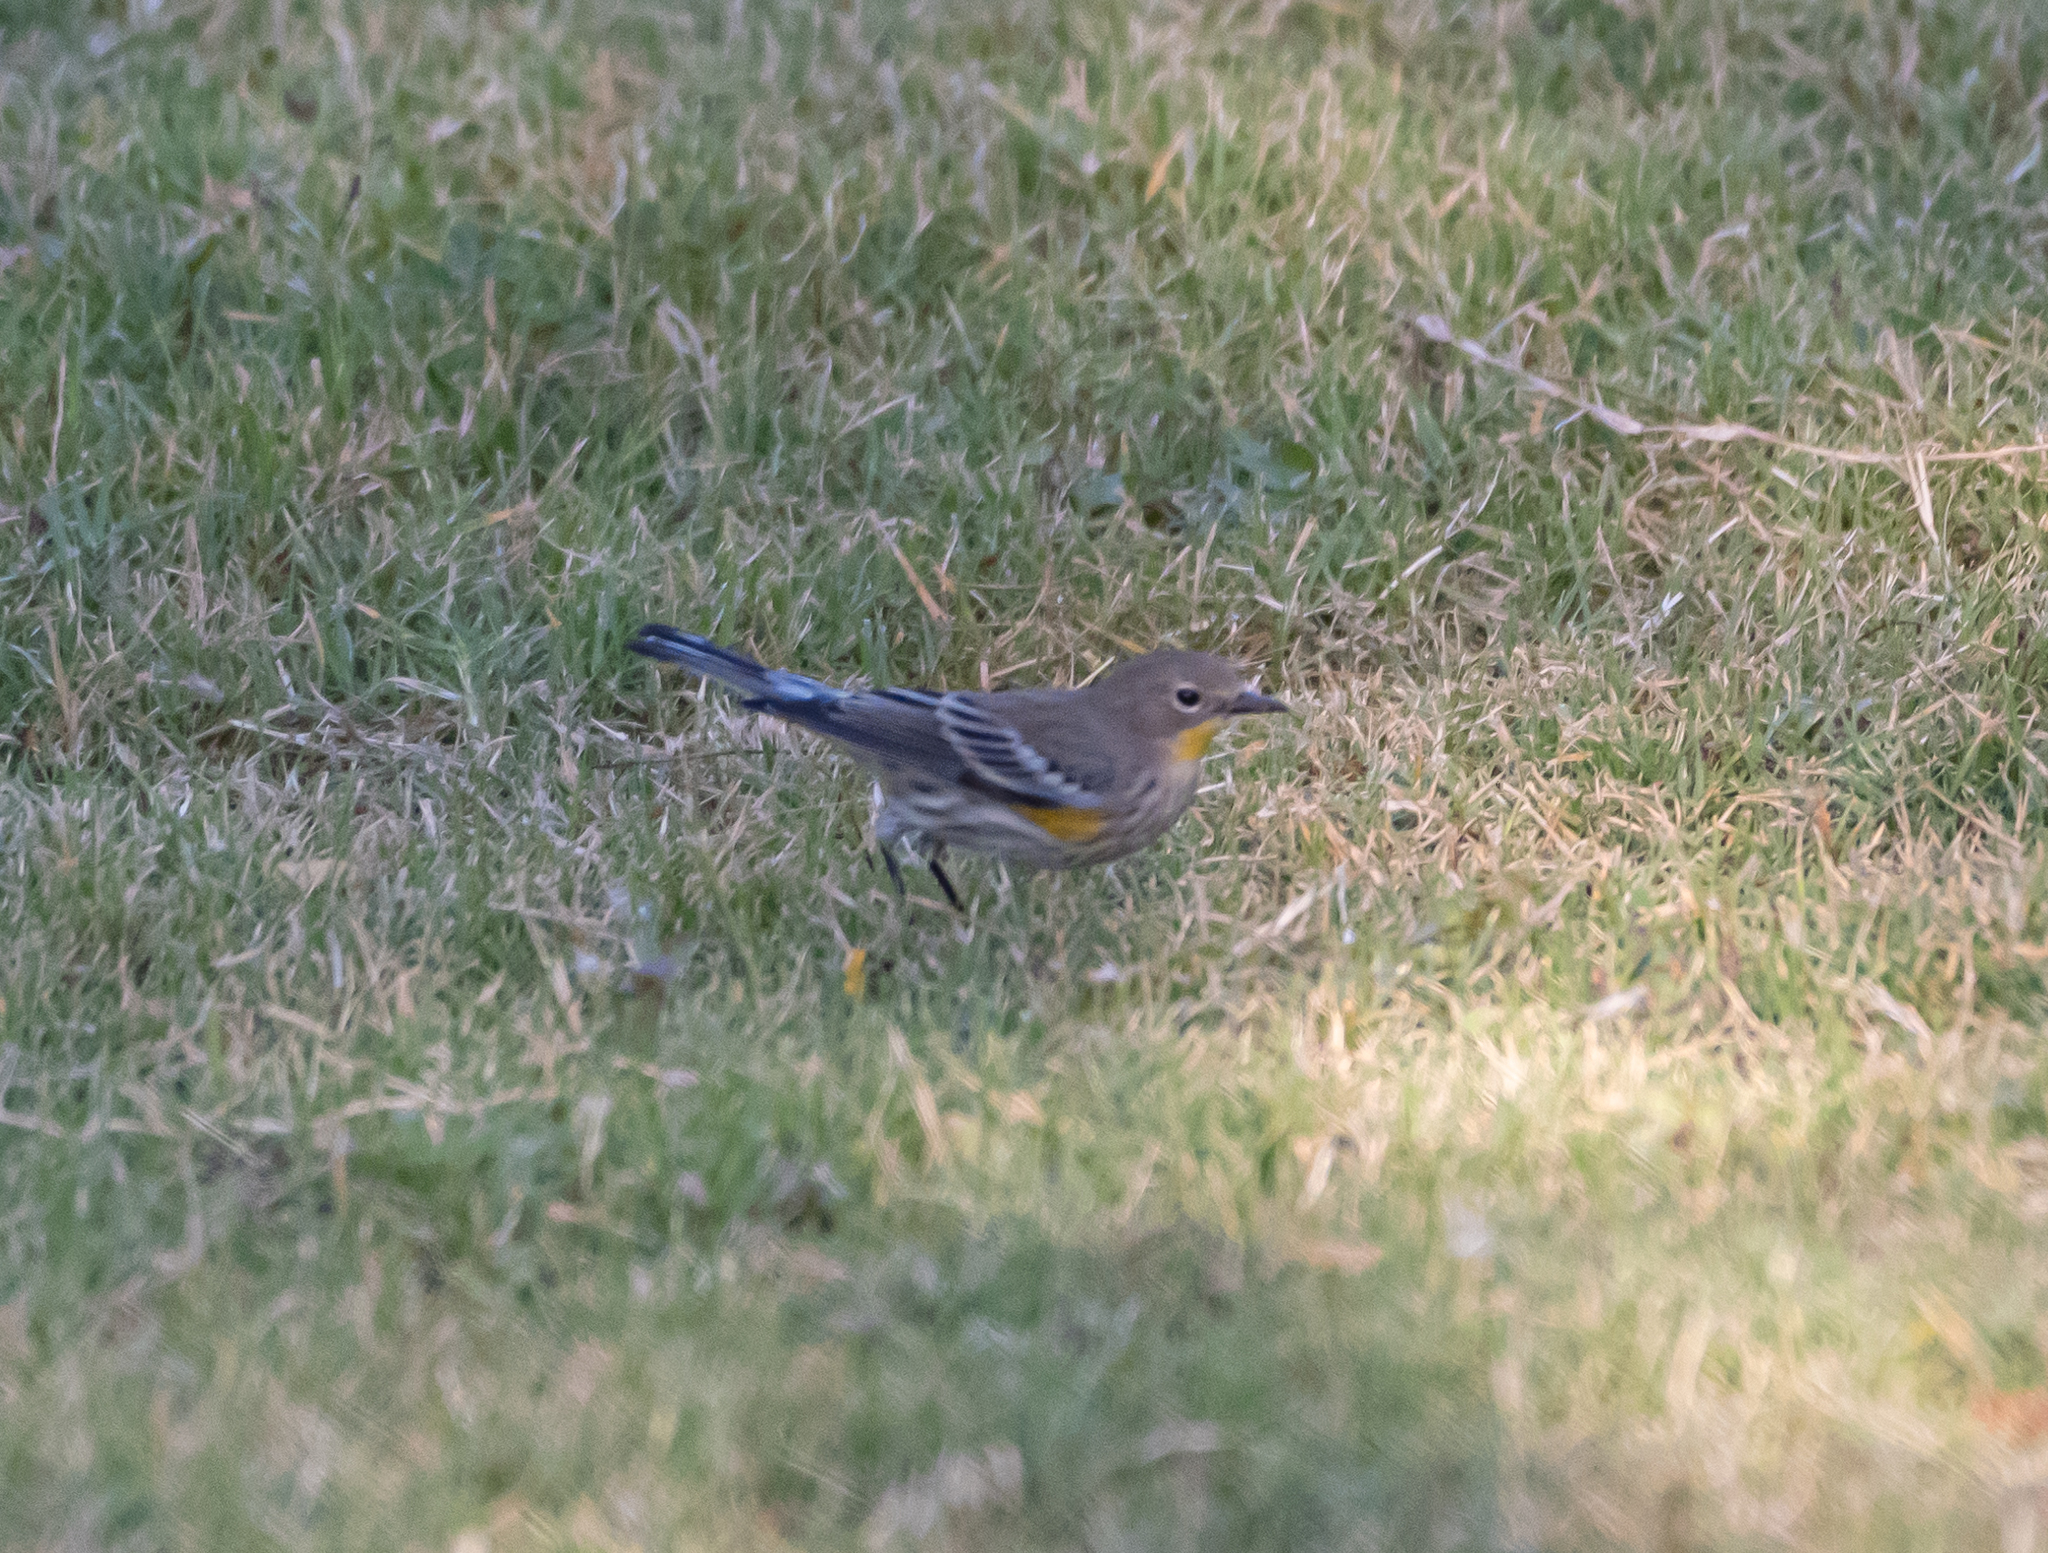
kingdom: Animalia
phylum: Chordata
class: Aves
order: Passeriformes
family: Parulidae
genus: Setophaga
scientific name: Setophaga coronata
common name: Myrtle warbler
